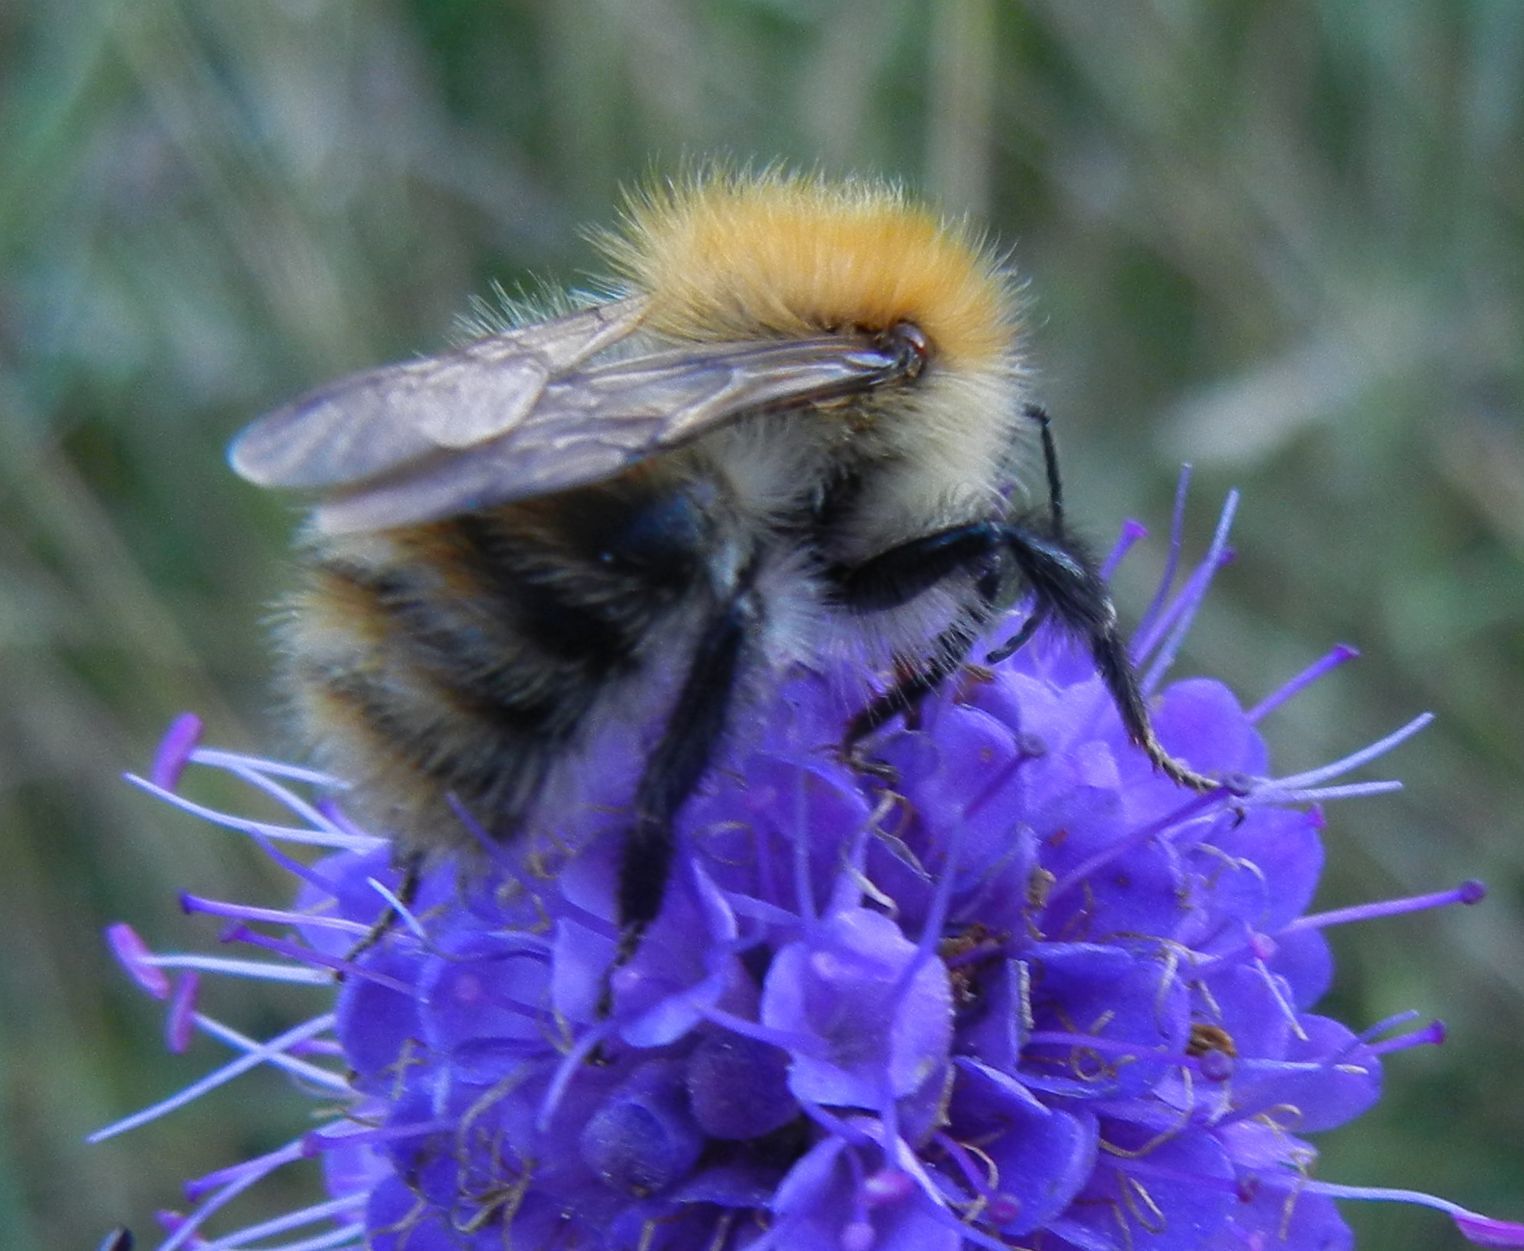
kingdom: Animalia
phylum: Arthropoda
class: Insecta
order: Hymenoptera
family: Apidae
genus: Bombus
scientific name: Bombus pascuorum
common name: Common carder bee
